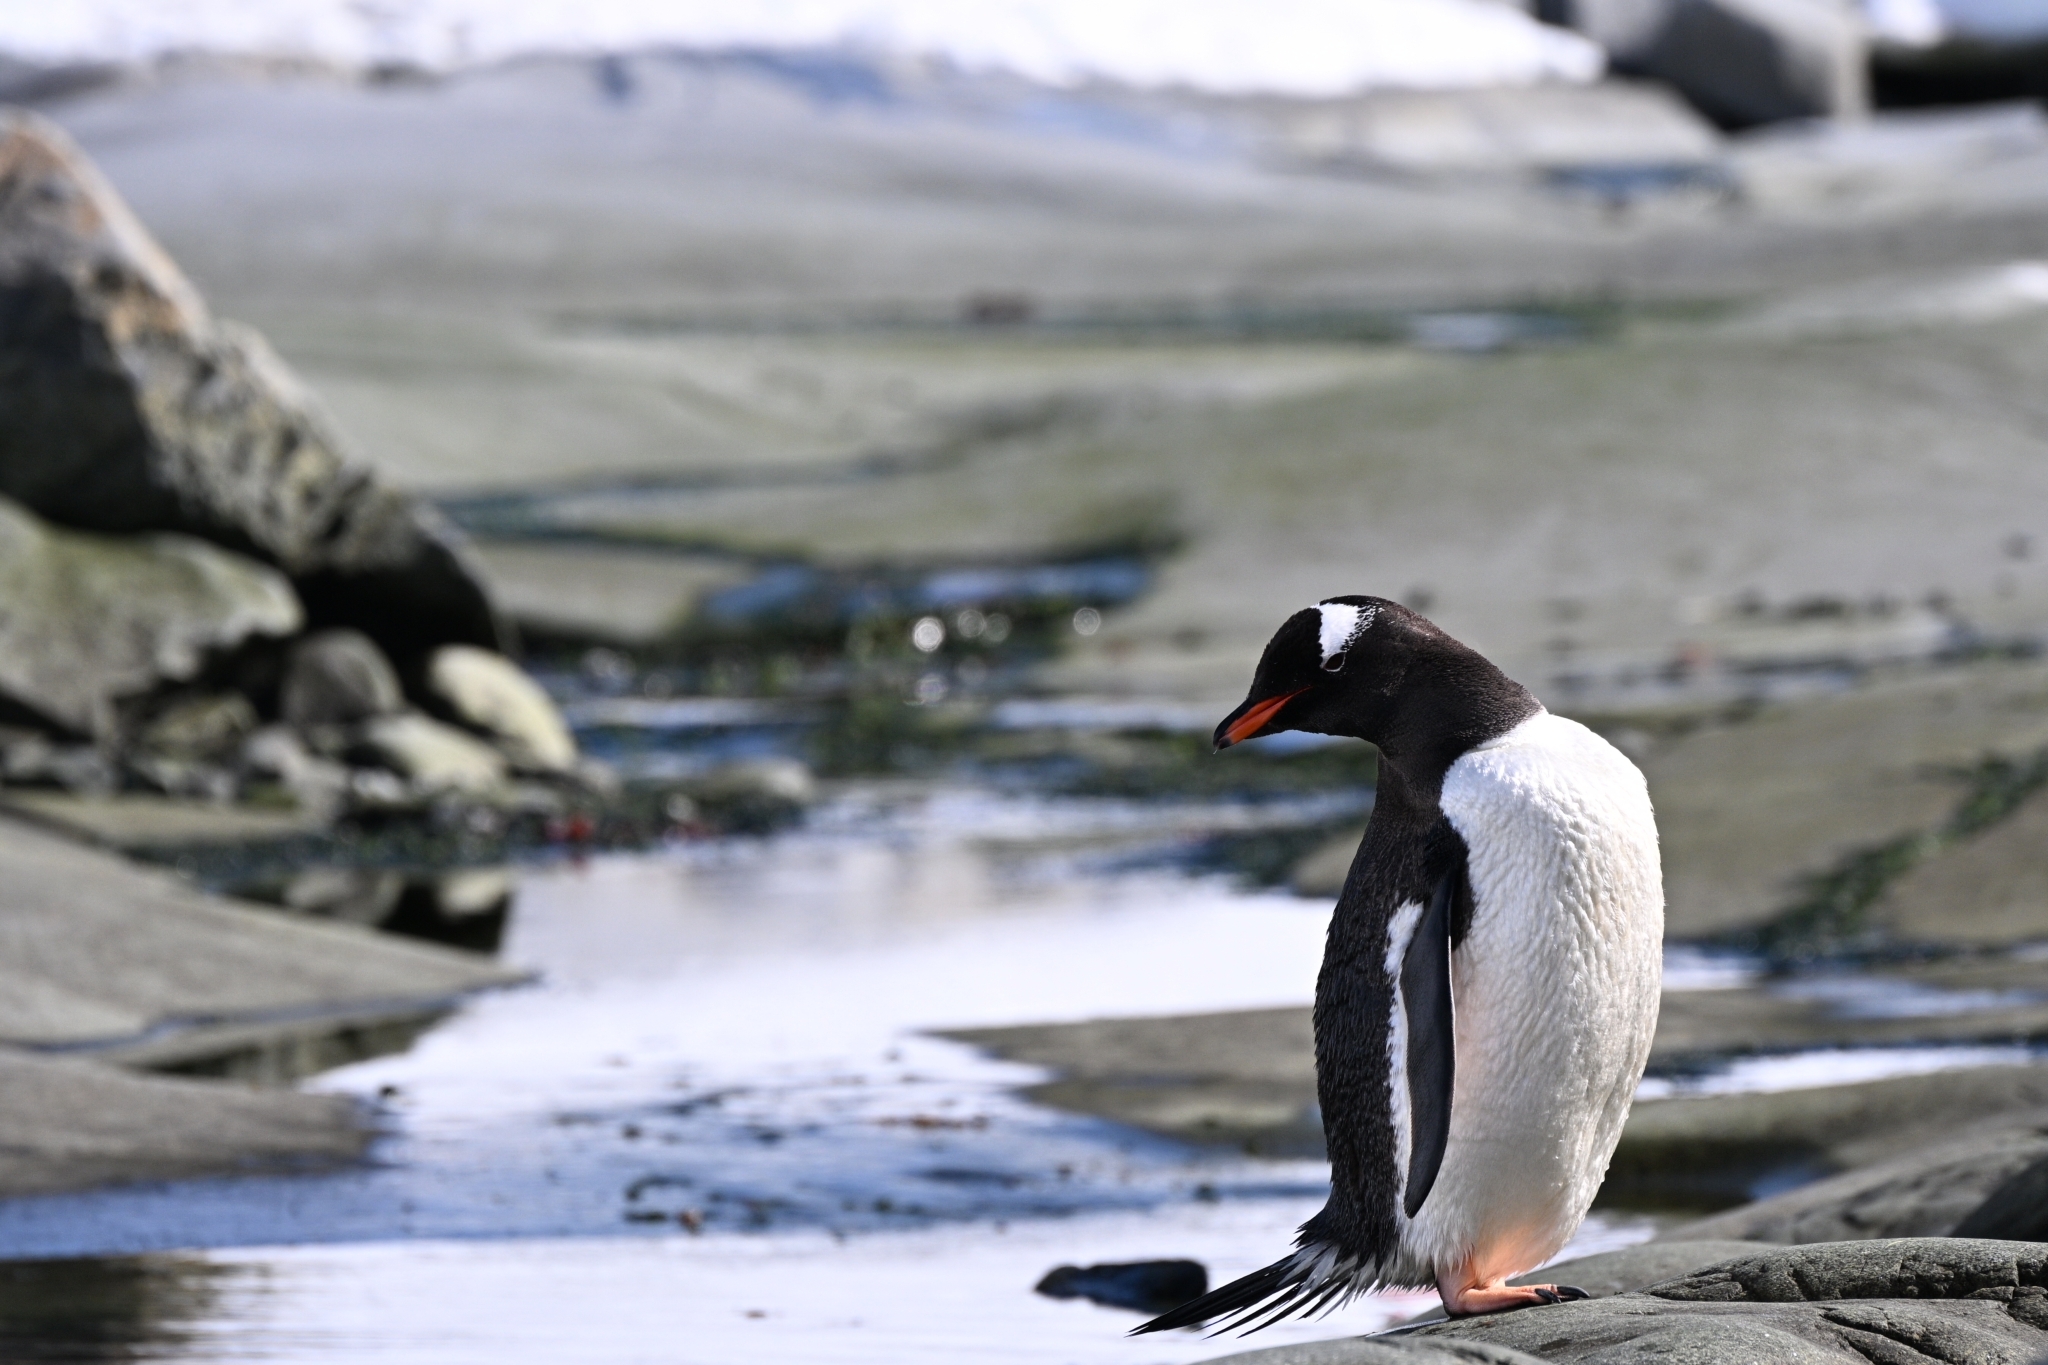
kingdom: Animalia
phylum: Chordata
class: Aves
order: Sphenisciformes
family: Spheniscidae
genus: Pygoscelis
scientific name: Pygoscelis papua
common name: Gentoo penguin
